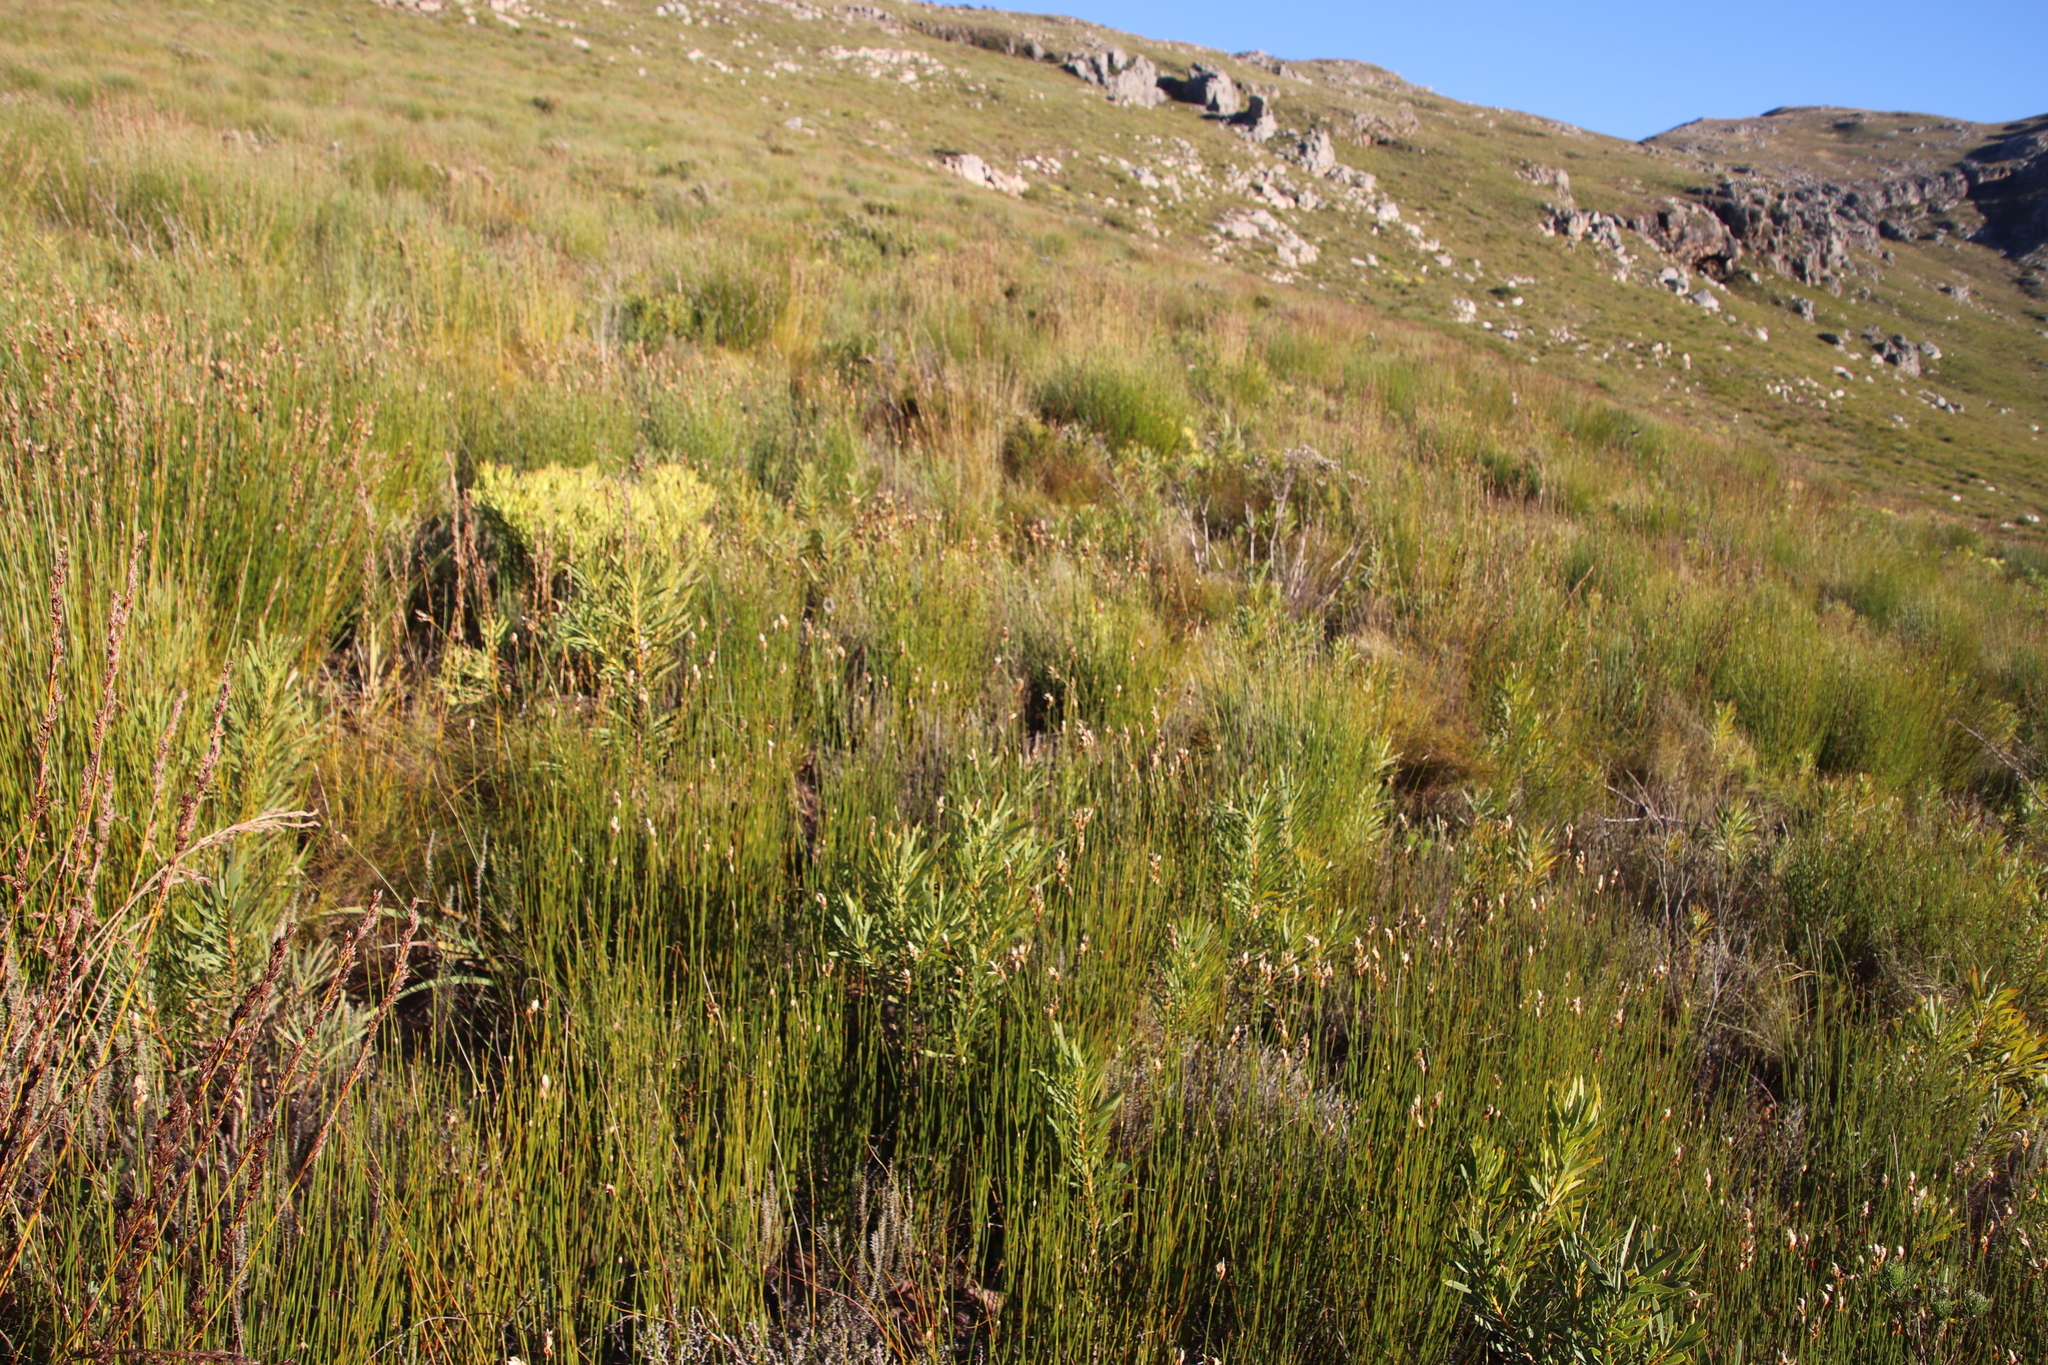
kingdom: Plantae
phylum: Tracheophyta
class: Magnoliopsida
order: Proteales
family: Proteaceae
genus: Protea
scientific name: Protea repens
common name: Sugarbush
